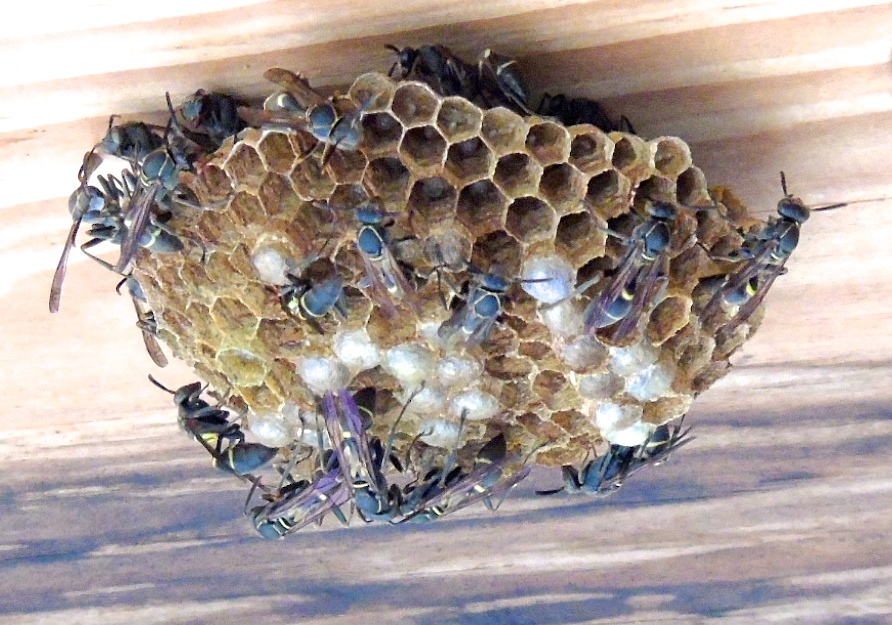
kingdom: Animalia
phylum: Arthropoda
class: Insecta
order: Hymenoptera
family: Vespidae
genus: Mischocyttarus
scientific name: Mischocyttarus rufidens
